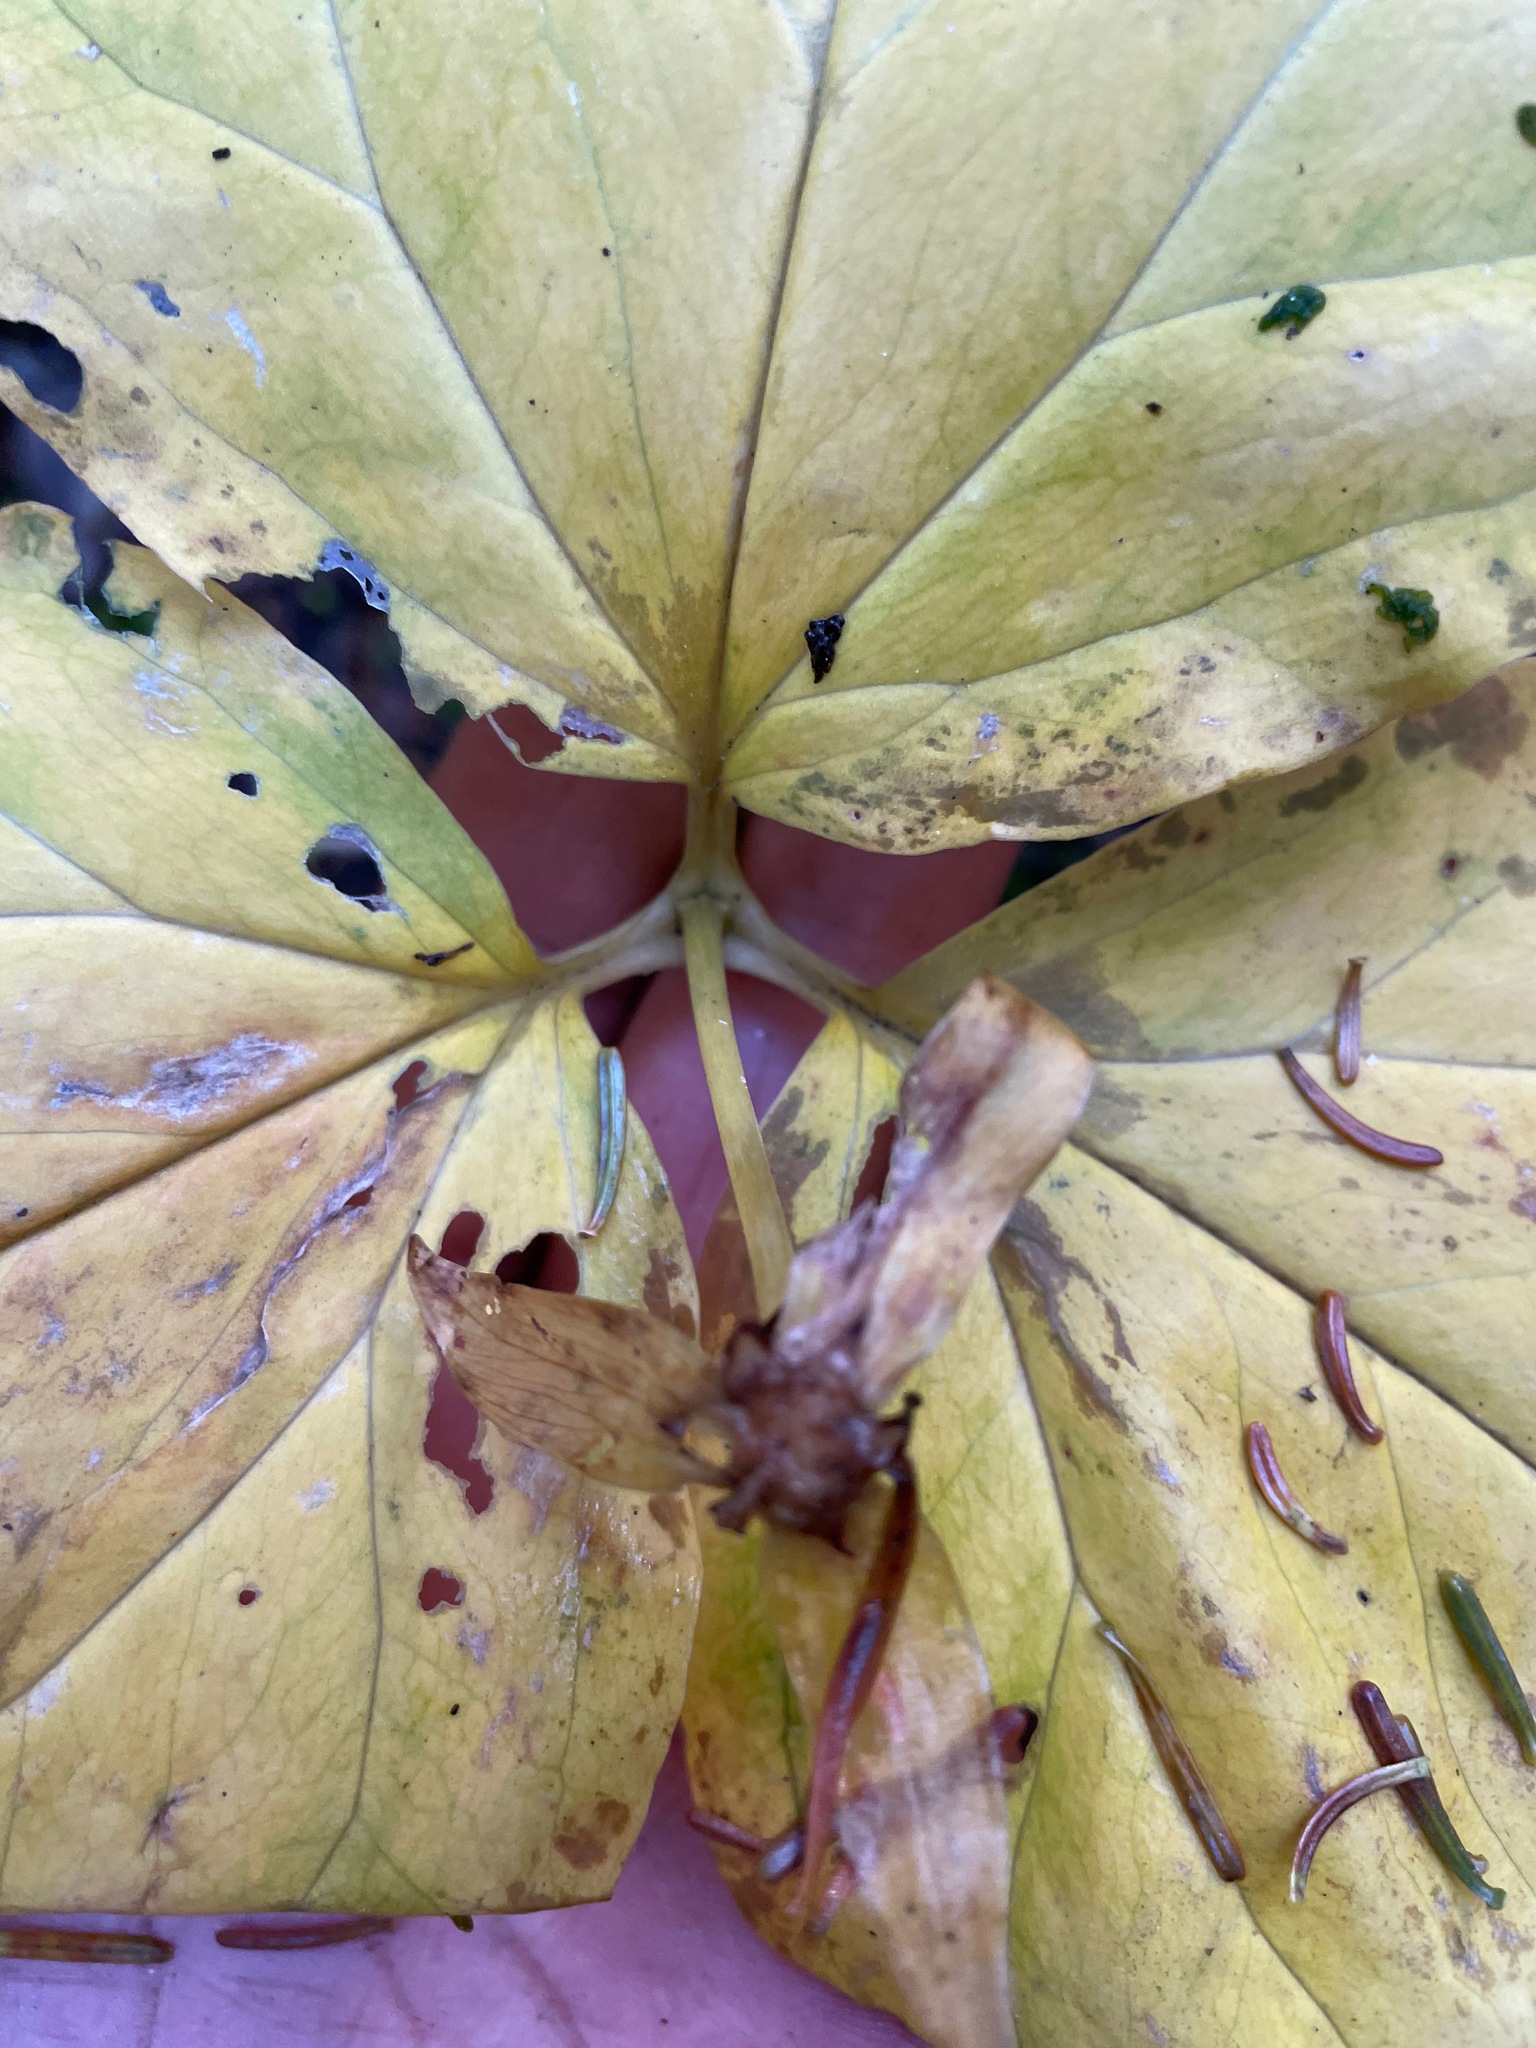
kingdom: Plantae
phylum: Tracheophyta
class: Liliopsida
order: Liliales
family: Melanthiaceae
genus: Trillium
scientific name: Trillium undulatum
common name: Paint trillium
